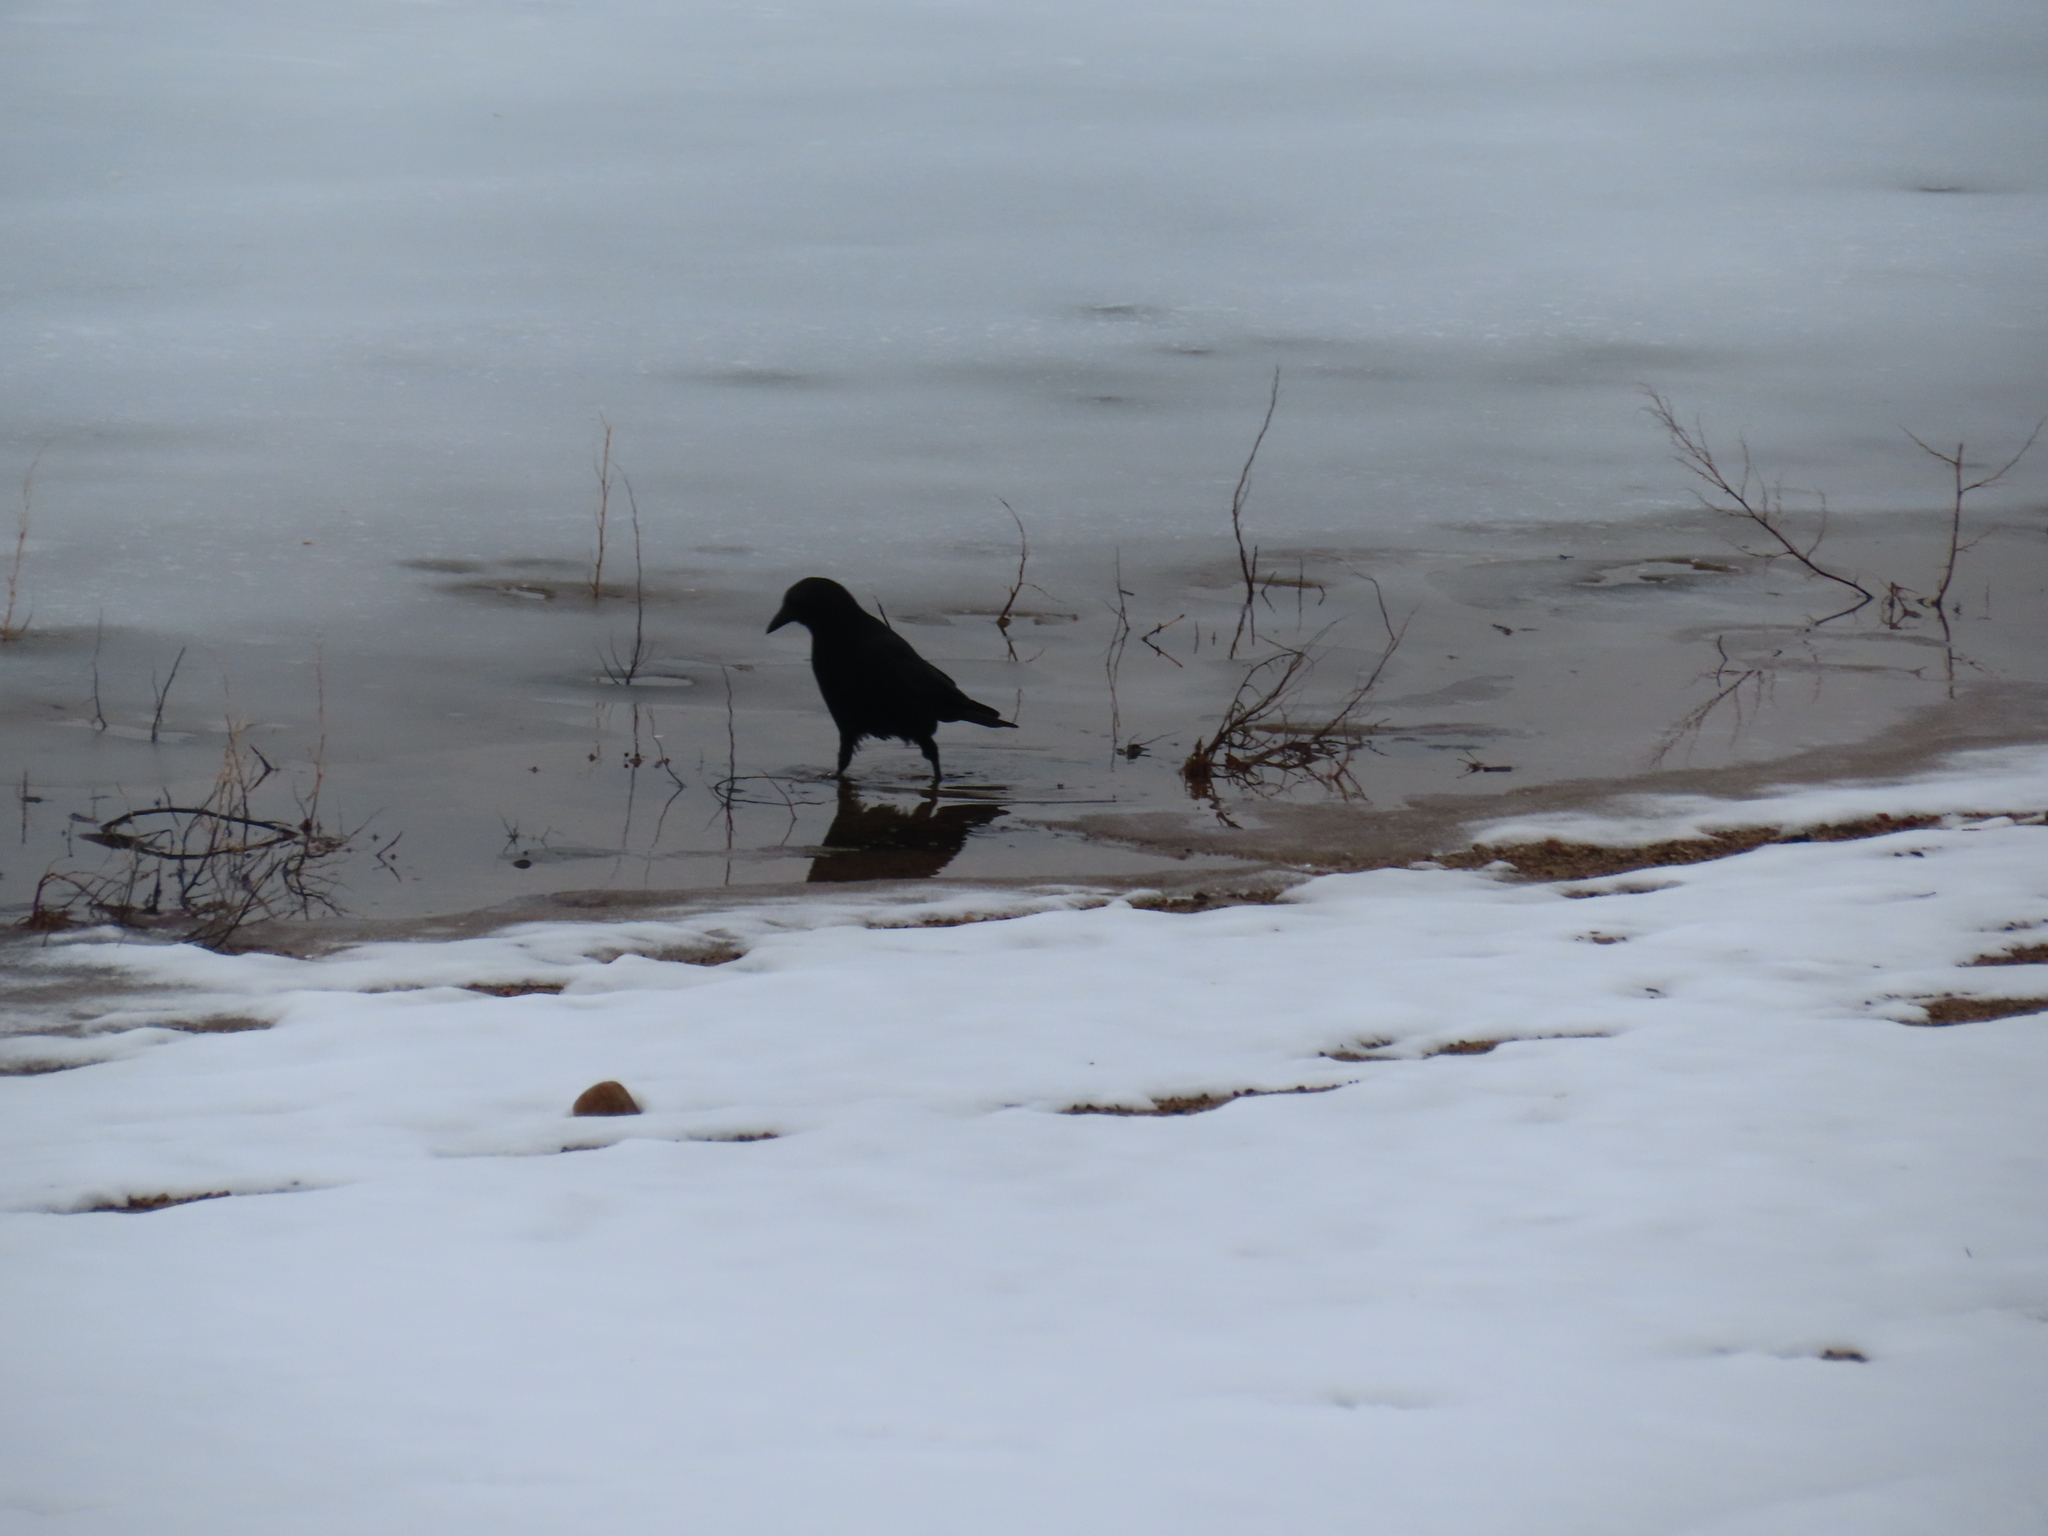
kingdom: Animalia
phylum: Chordata
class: Aves
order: Passeriformes
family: Corvidae
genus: Corvus
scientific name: Corvus brachyrhynchos
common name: American crow
